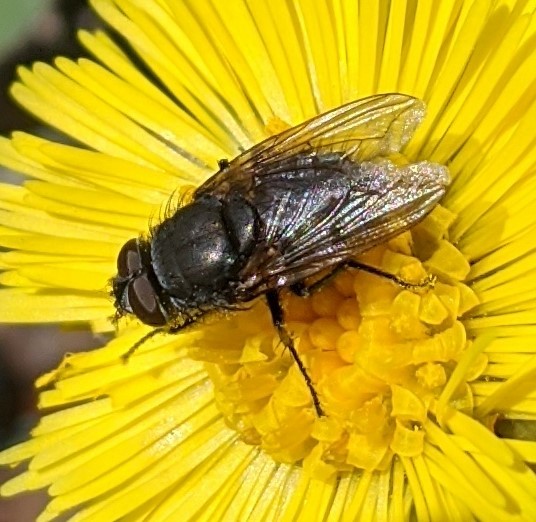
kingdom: Animalia
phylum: Arthropoda
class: Insecta
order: Diptera
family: Polleniidae
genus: Pollenia
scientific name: Pollenia
